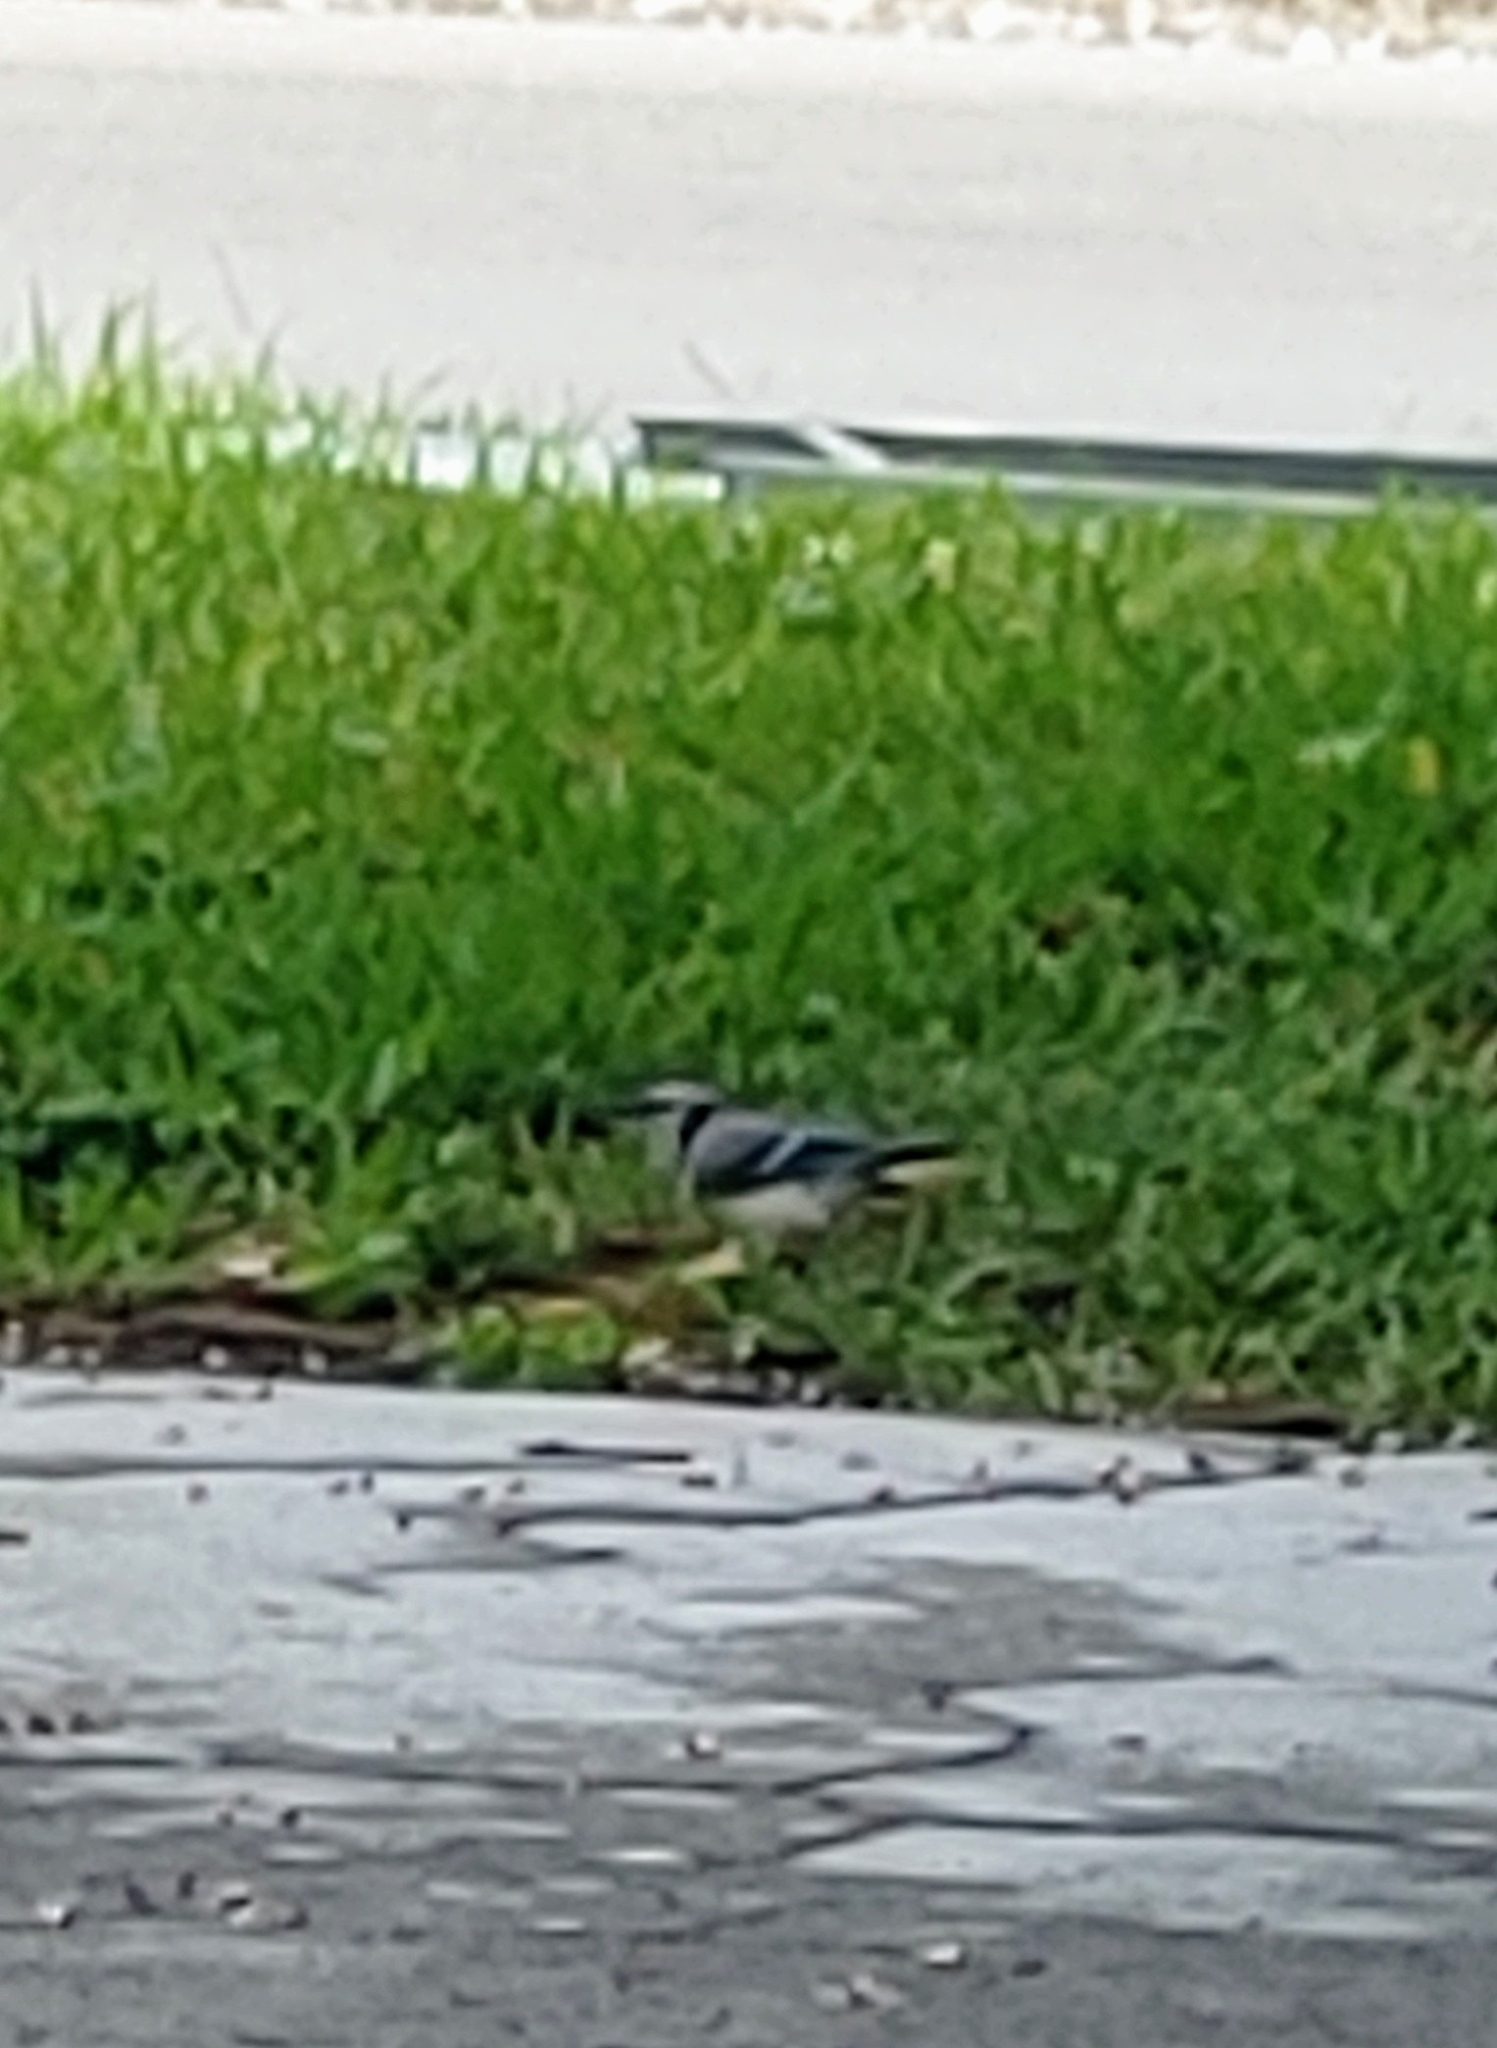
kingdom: Animalia
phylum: Chordata
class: Aves
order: Passeriformes
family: Corvidae
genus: Cyanocitta
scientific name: Cyanocitta cristata
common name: Blue jay
